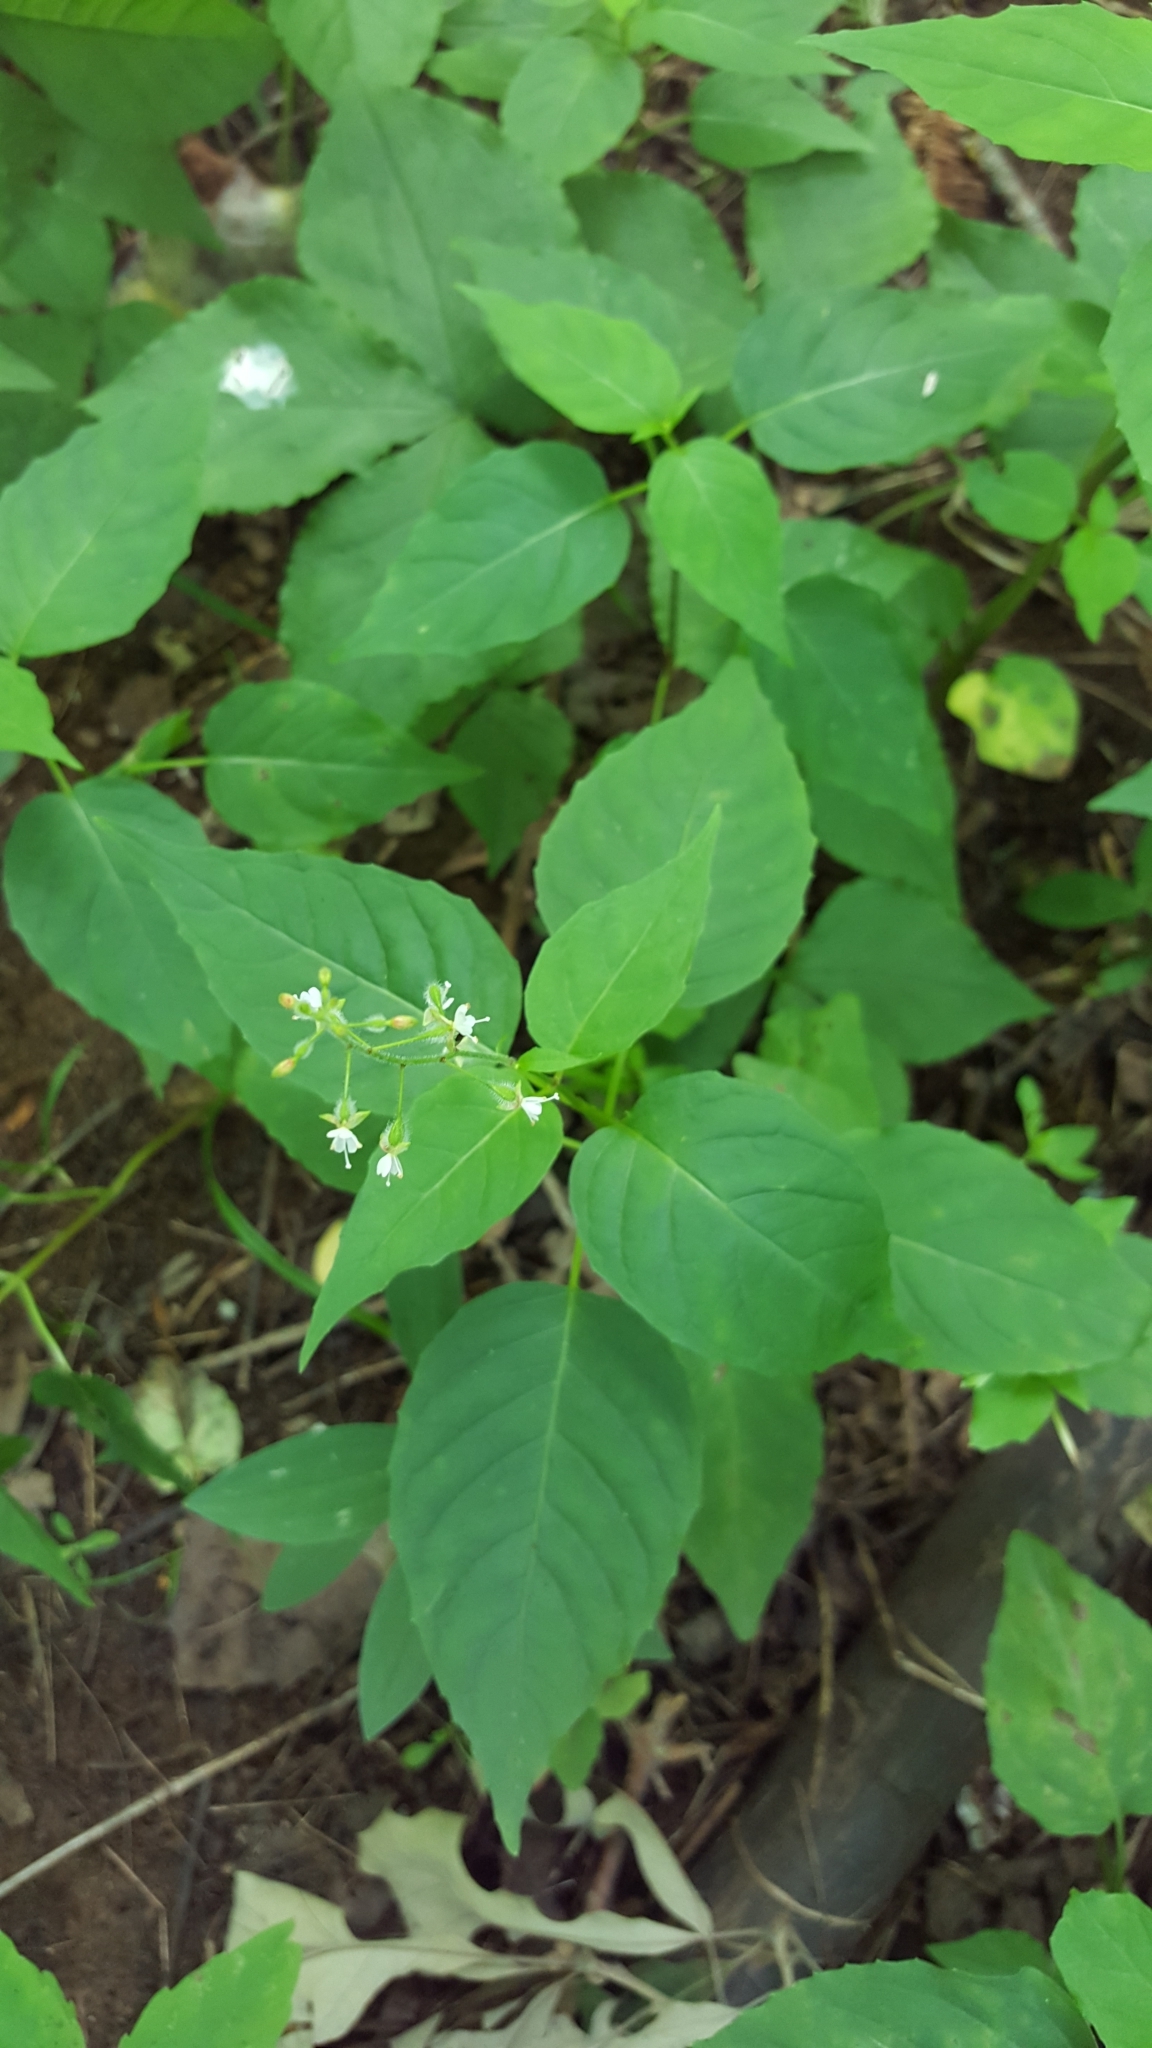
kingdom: Plantae
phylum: Tracheophyta
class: Magnoliopsida
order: Myrtales
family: Onagraceae
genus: Circaea
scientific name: Circaea canadensis
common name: Broad-leaved enchanter's nightshade
